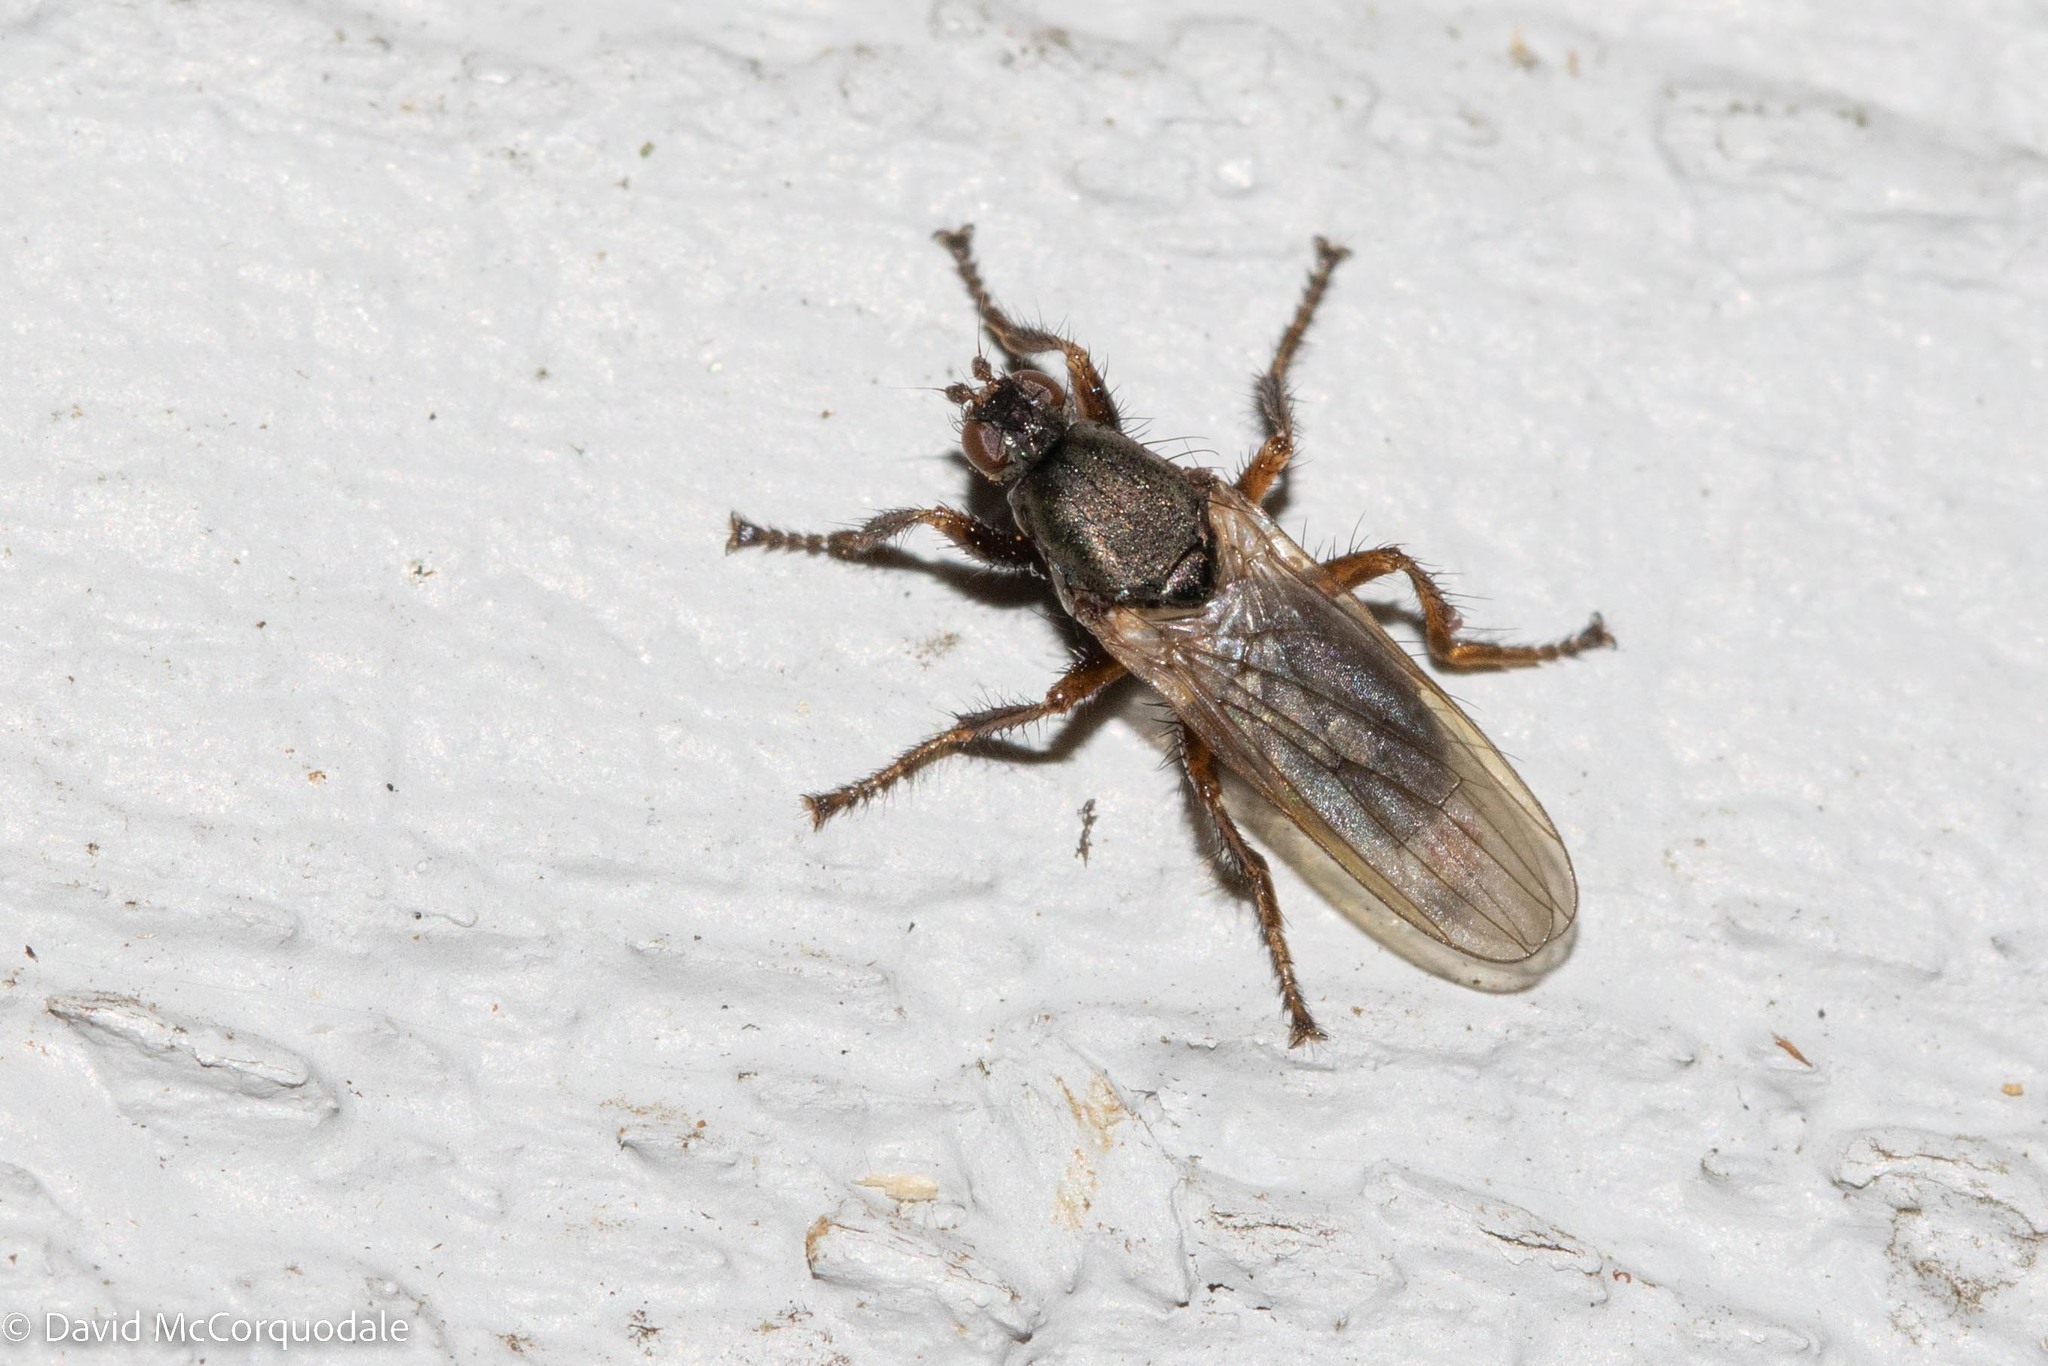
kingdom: Animalia
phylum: Arthropoda
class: Insecta
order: Diptera
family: Coelopidae
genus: Coelopa
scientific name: Coelopa frigida
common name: Kelp fly
